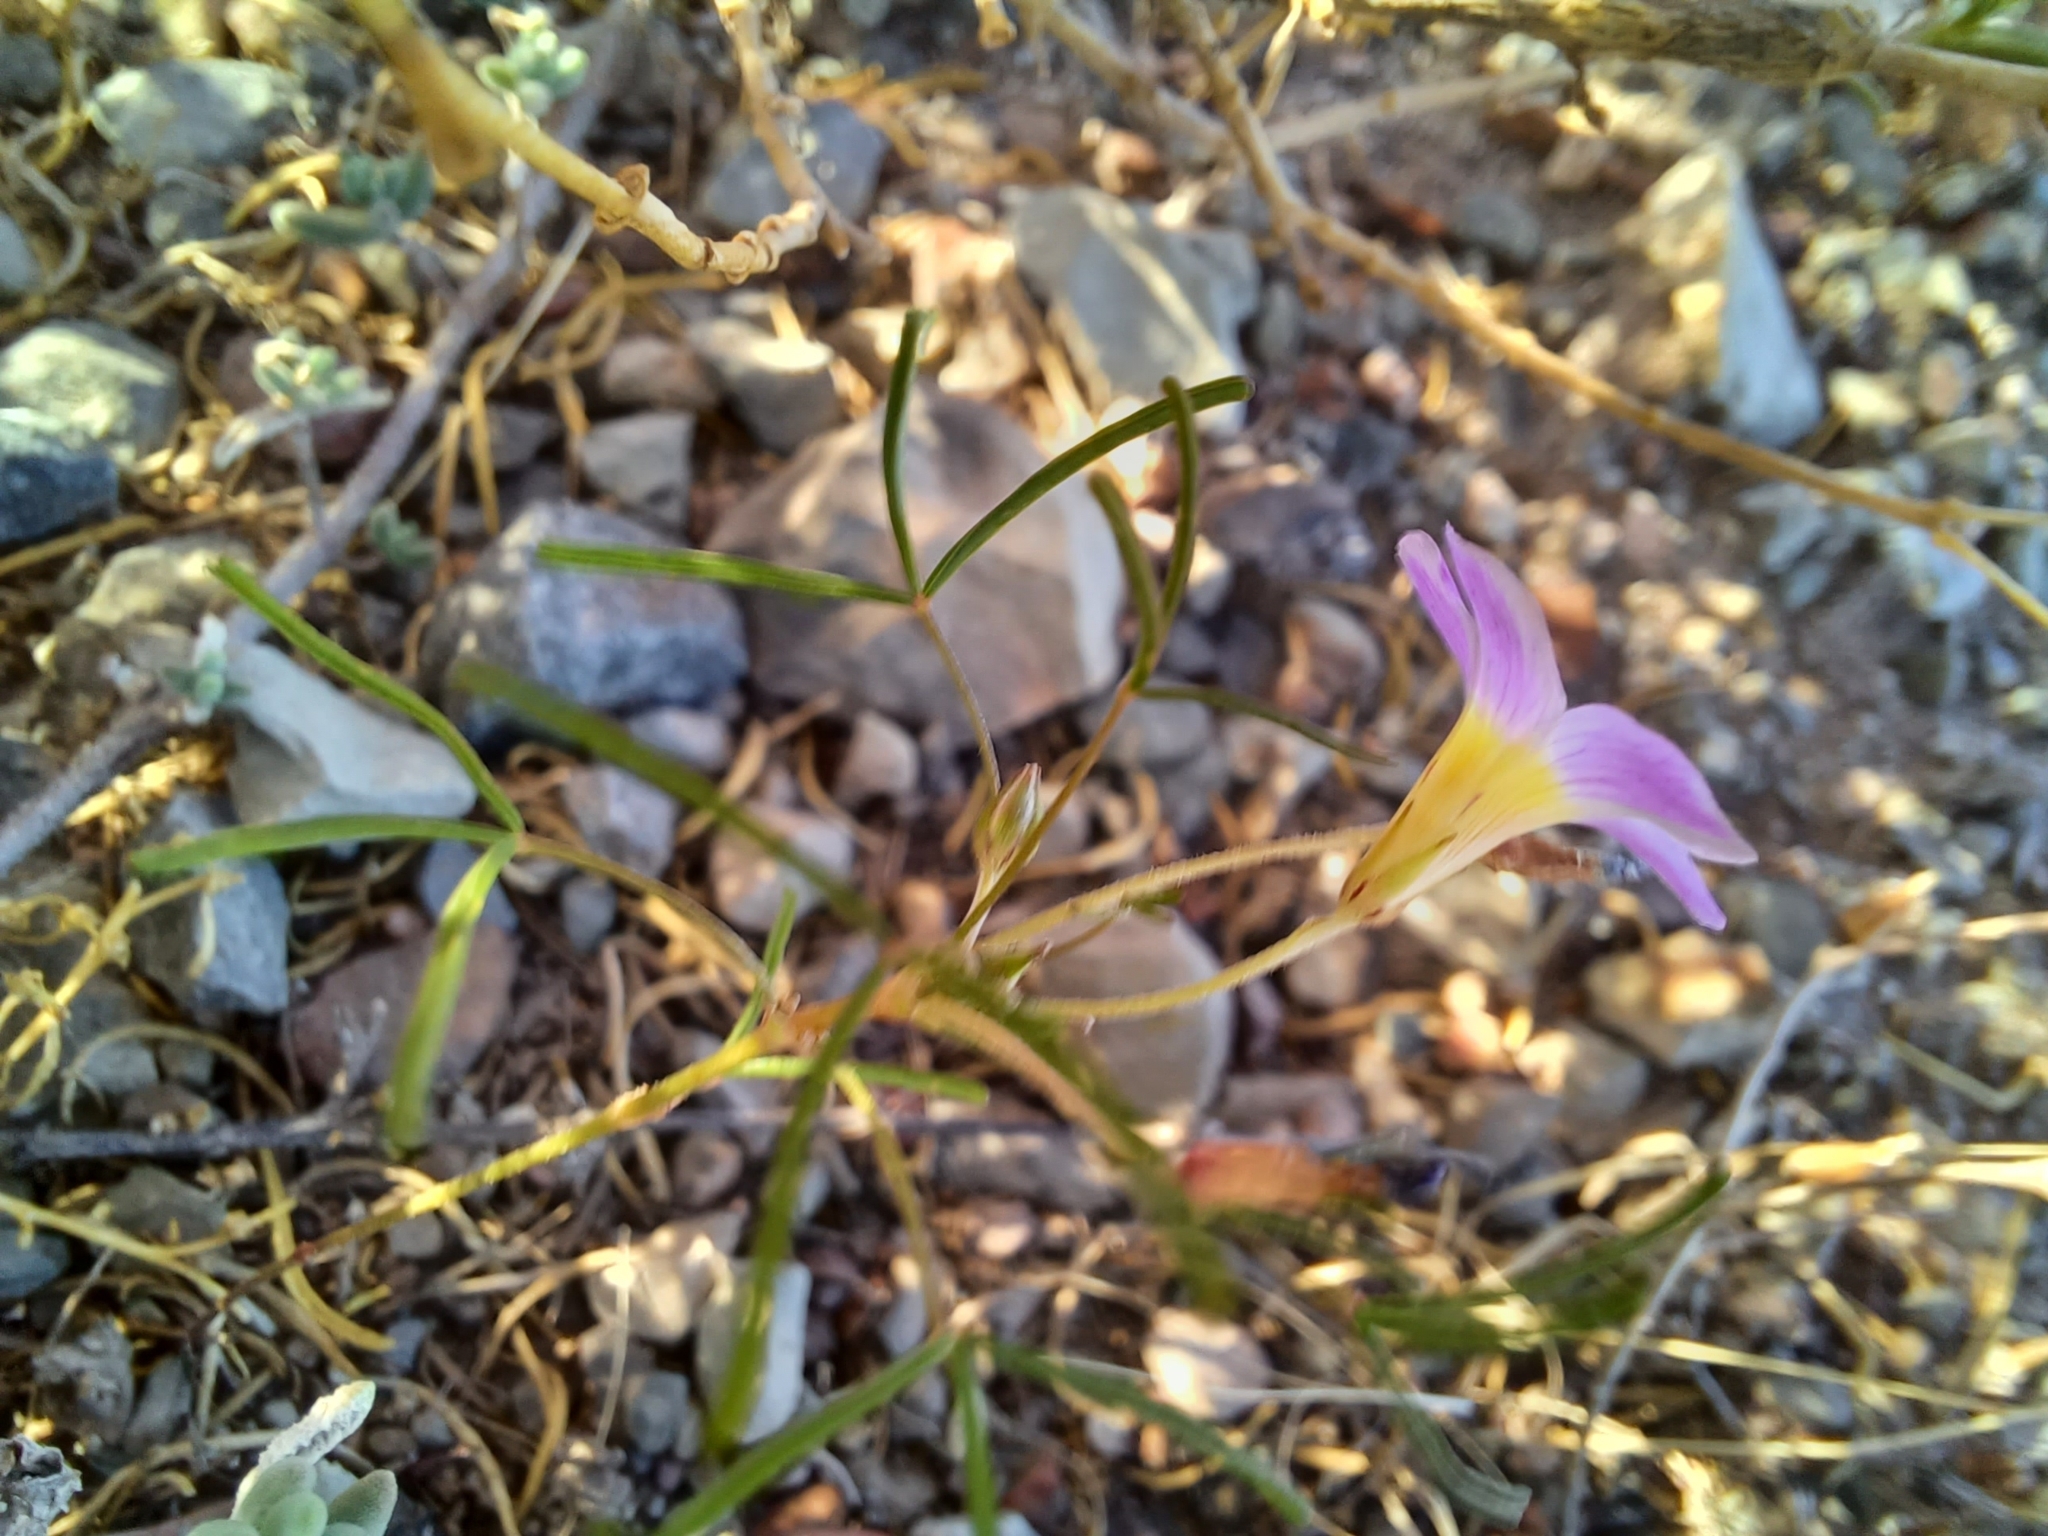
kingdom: Plantae
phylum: Tracheophyta
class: Magnoliopsida
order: Oxalidales
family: Oxalidaceae
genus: Oxalis
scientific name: Oxalis burkei
